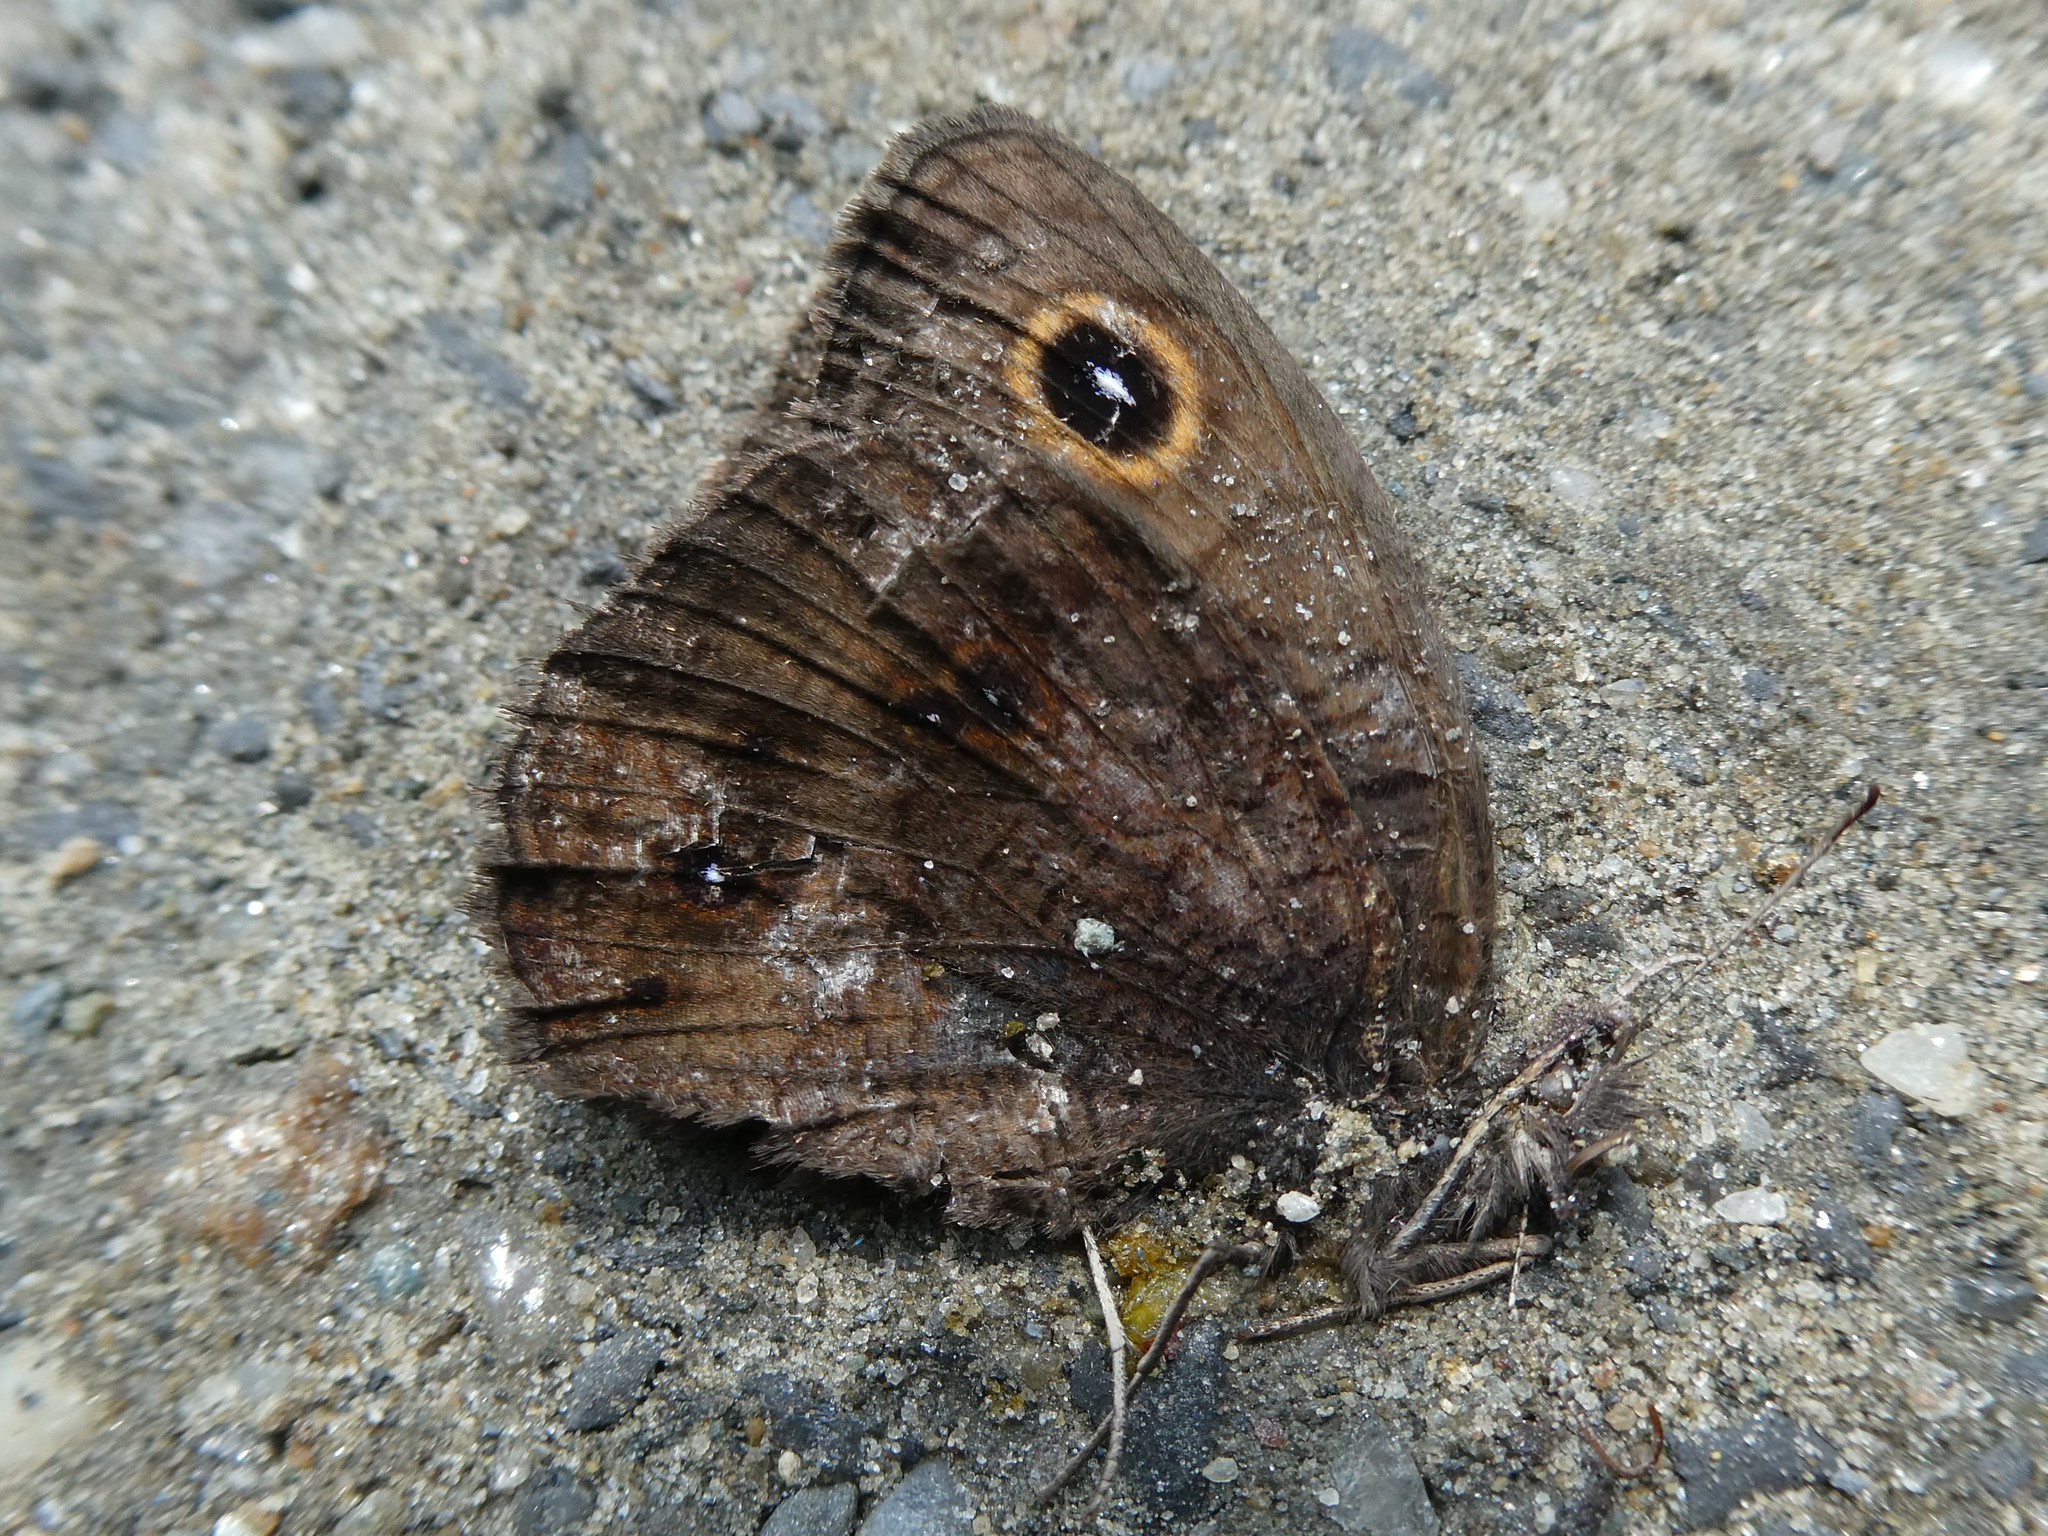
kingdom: Animalia
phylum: Arthropoda
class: Insecta
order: Lepidoptera
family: Nymphalidae
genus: Cercyonis
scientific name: Cercyonis pegala
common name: Common wood-nymph
